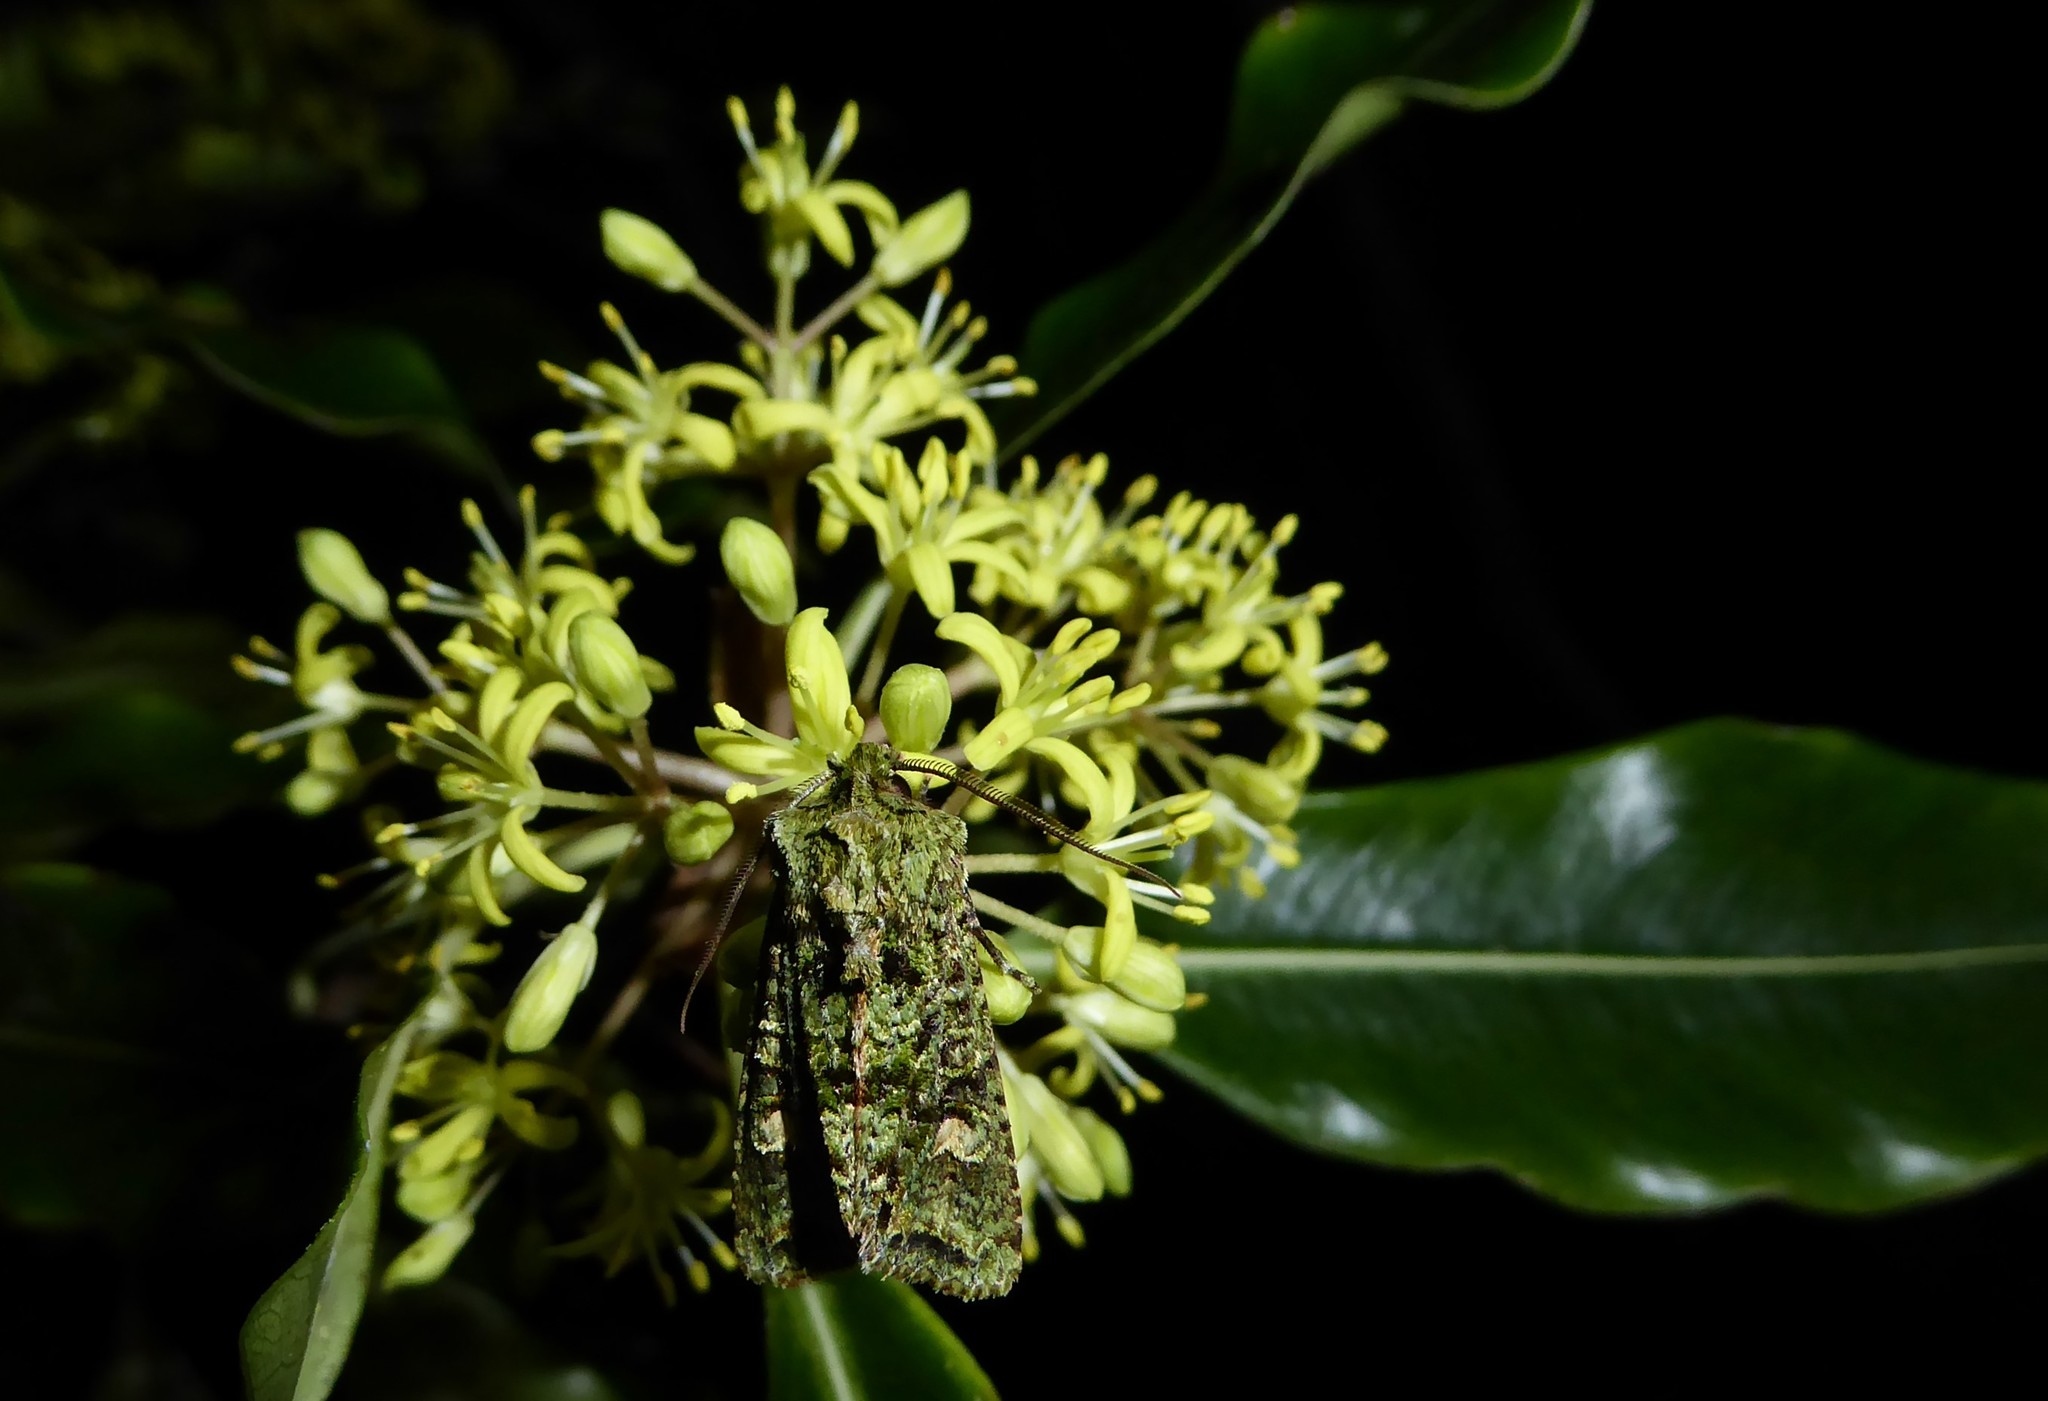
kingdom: Animalia
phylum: Arthropoda
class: Insecta
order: Lepidoptera
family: Noctuidae
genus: Ichneutica
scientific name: Ichneutica
